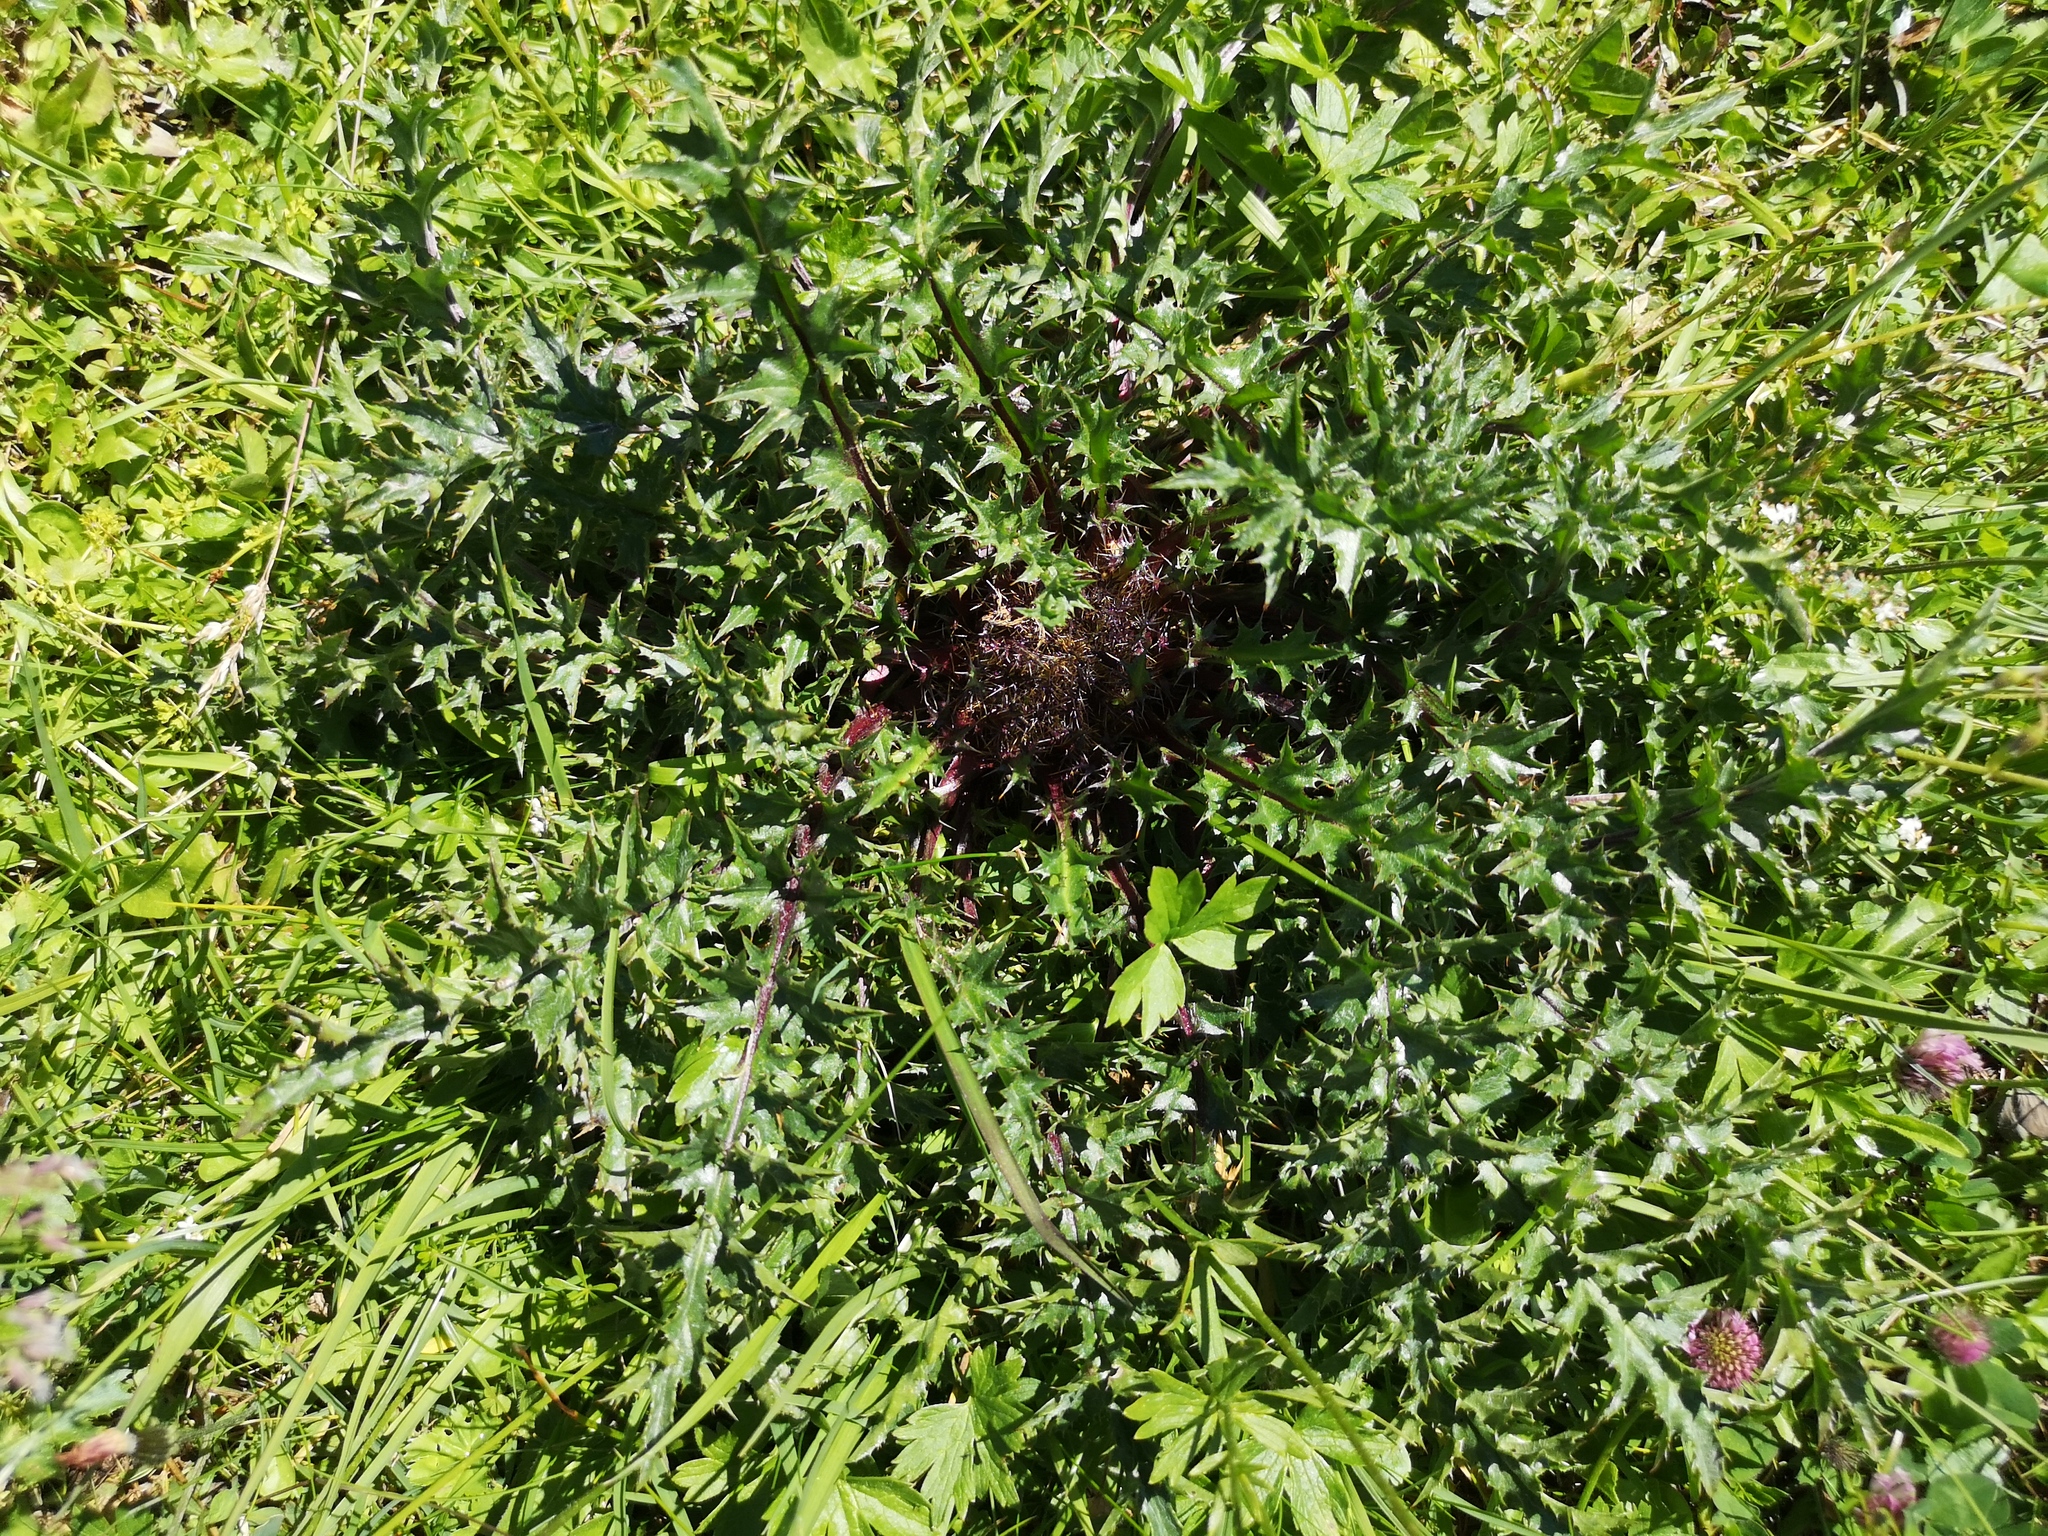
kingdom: Plantae
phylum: Tracheophyta
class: Magnoliopsida
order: Asterales
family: Asteraceae
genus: Carlina
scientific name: Carlina acaulis
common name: Stemless carline thistle
